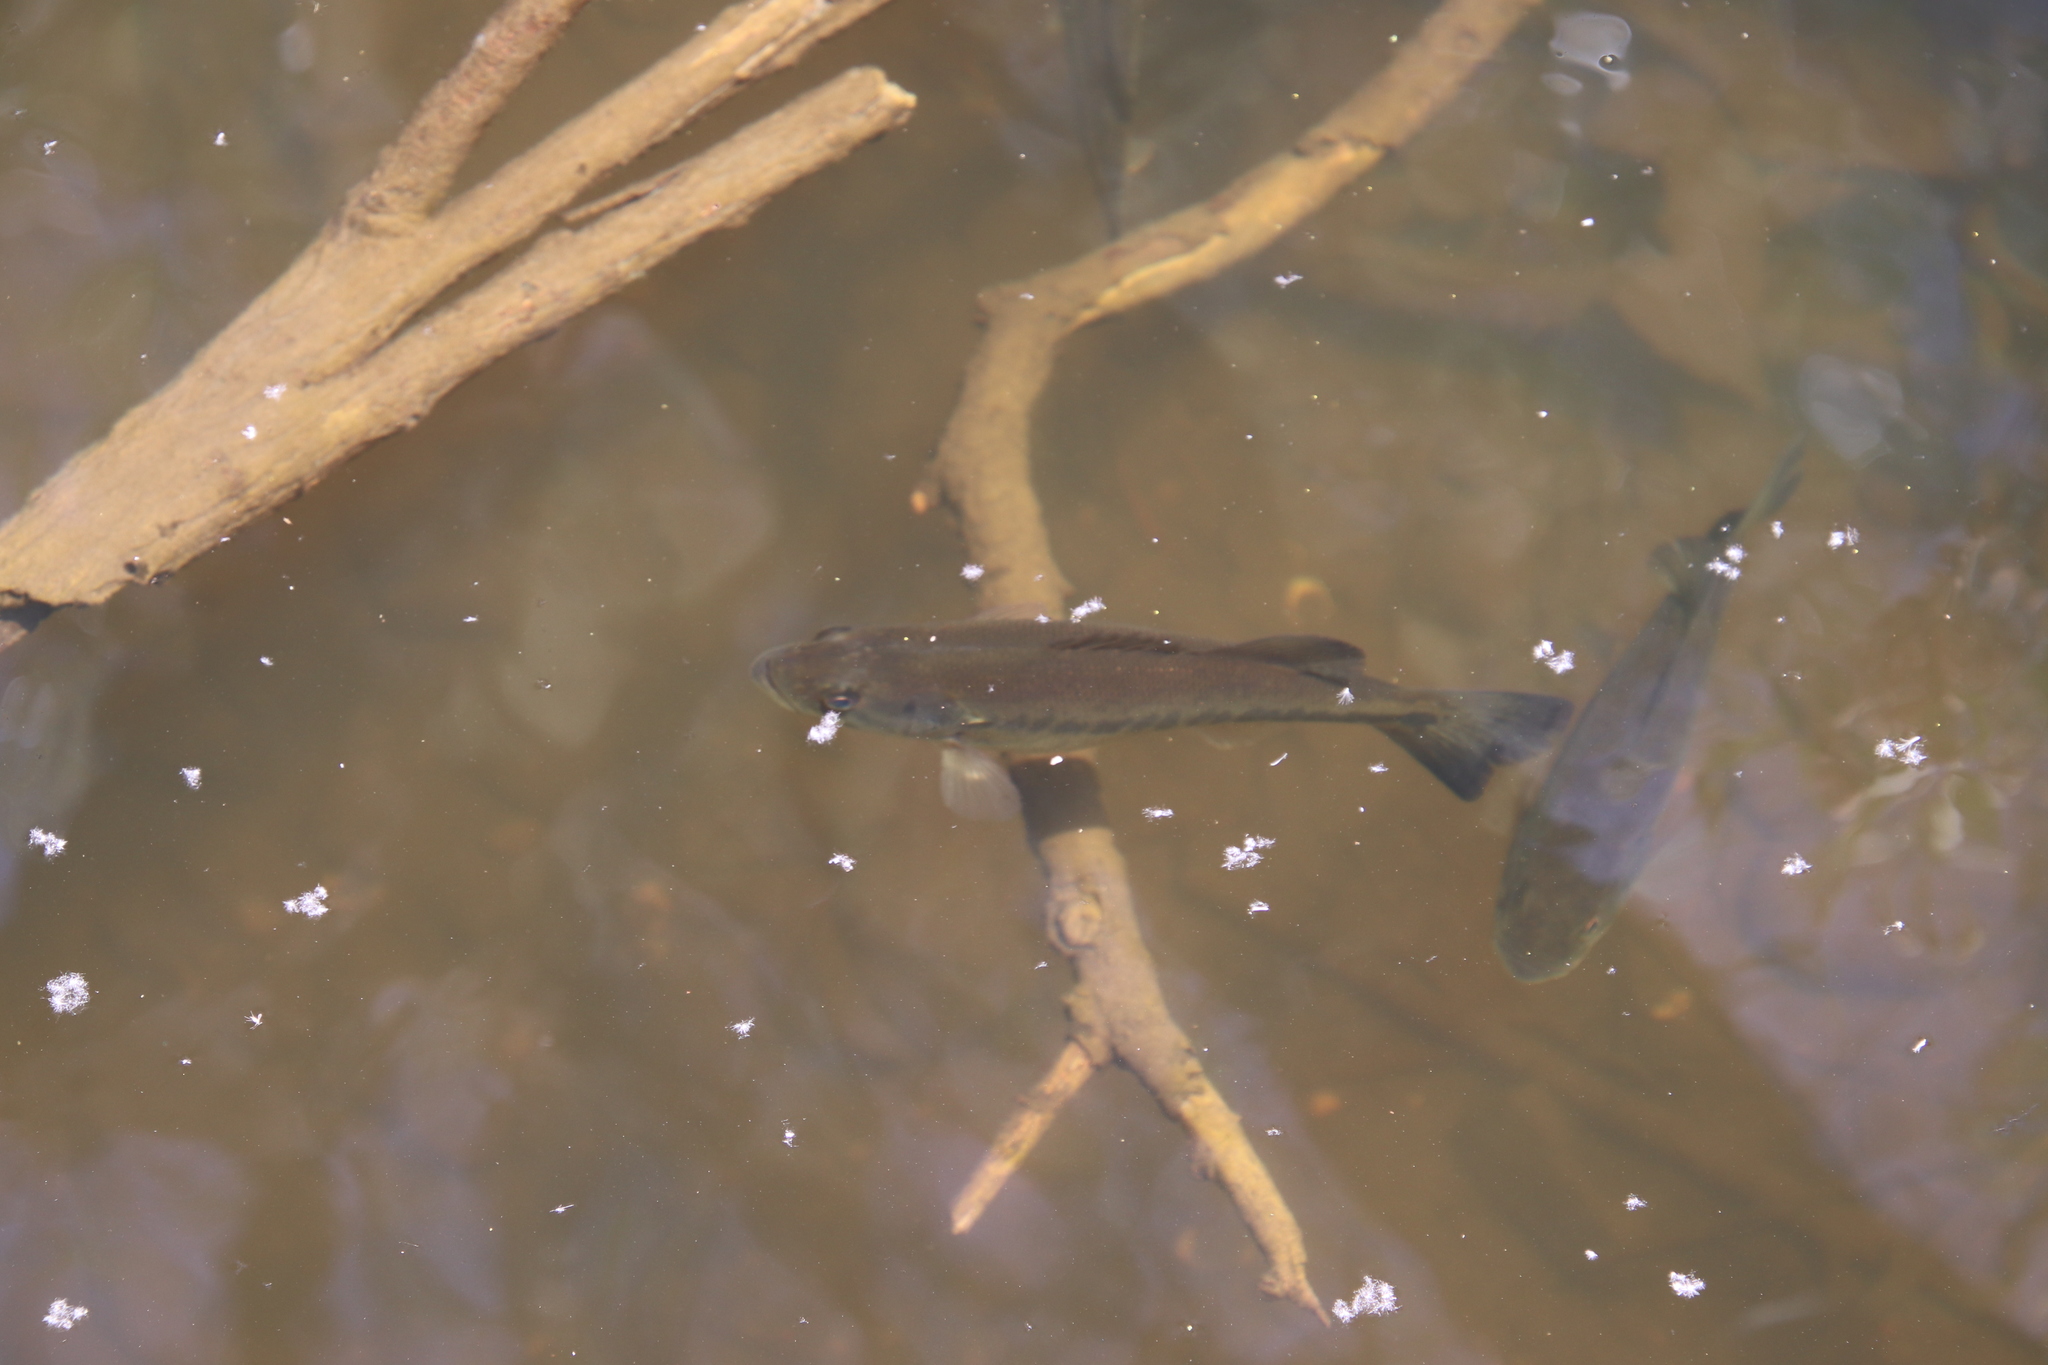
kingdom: Animalia
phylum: Chordata
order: Perciformes
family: Centrarchidae
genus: Micropterus
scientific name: Micropterus
